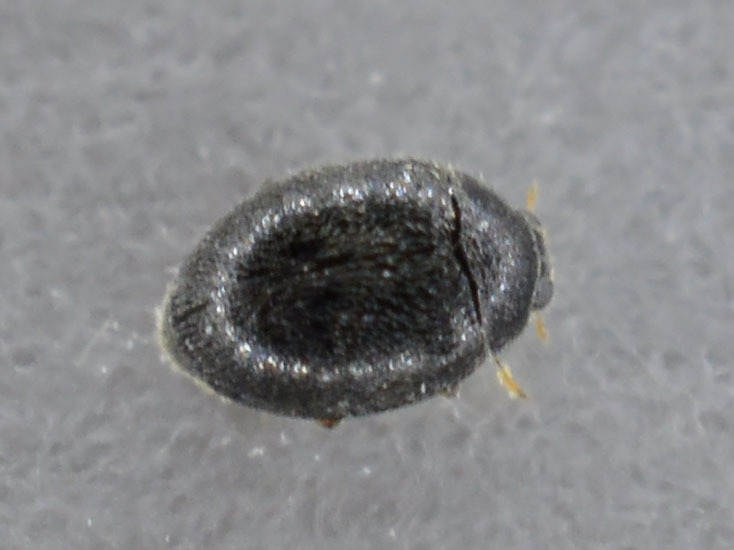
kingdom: Animalia
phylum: Arthropoda
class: Insecta
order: Coleoptera
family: Coccinellidae
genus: Stethorus
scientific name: Stethorus pusillus
